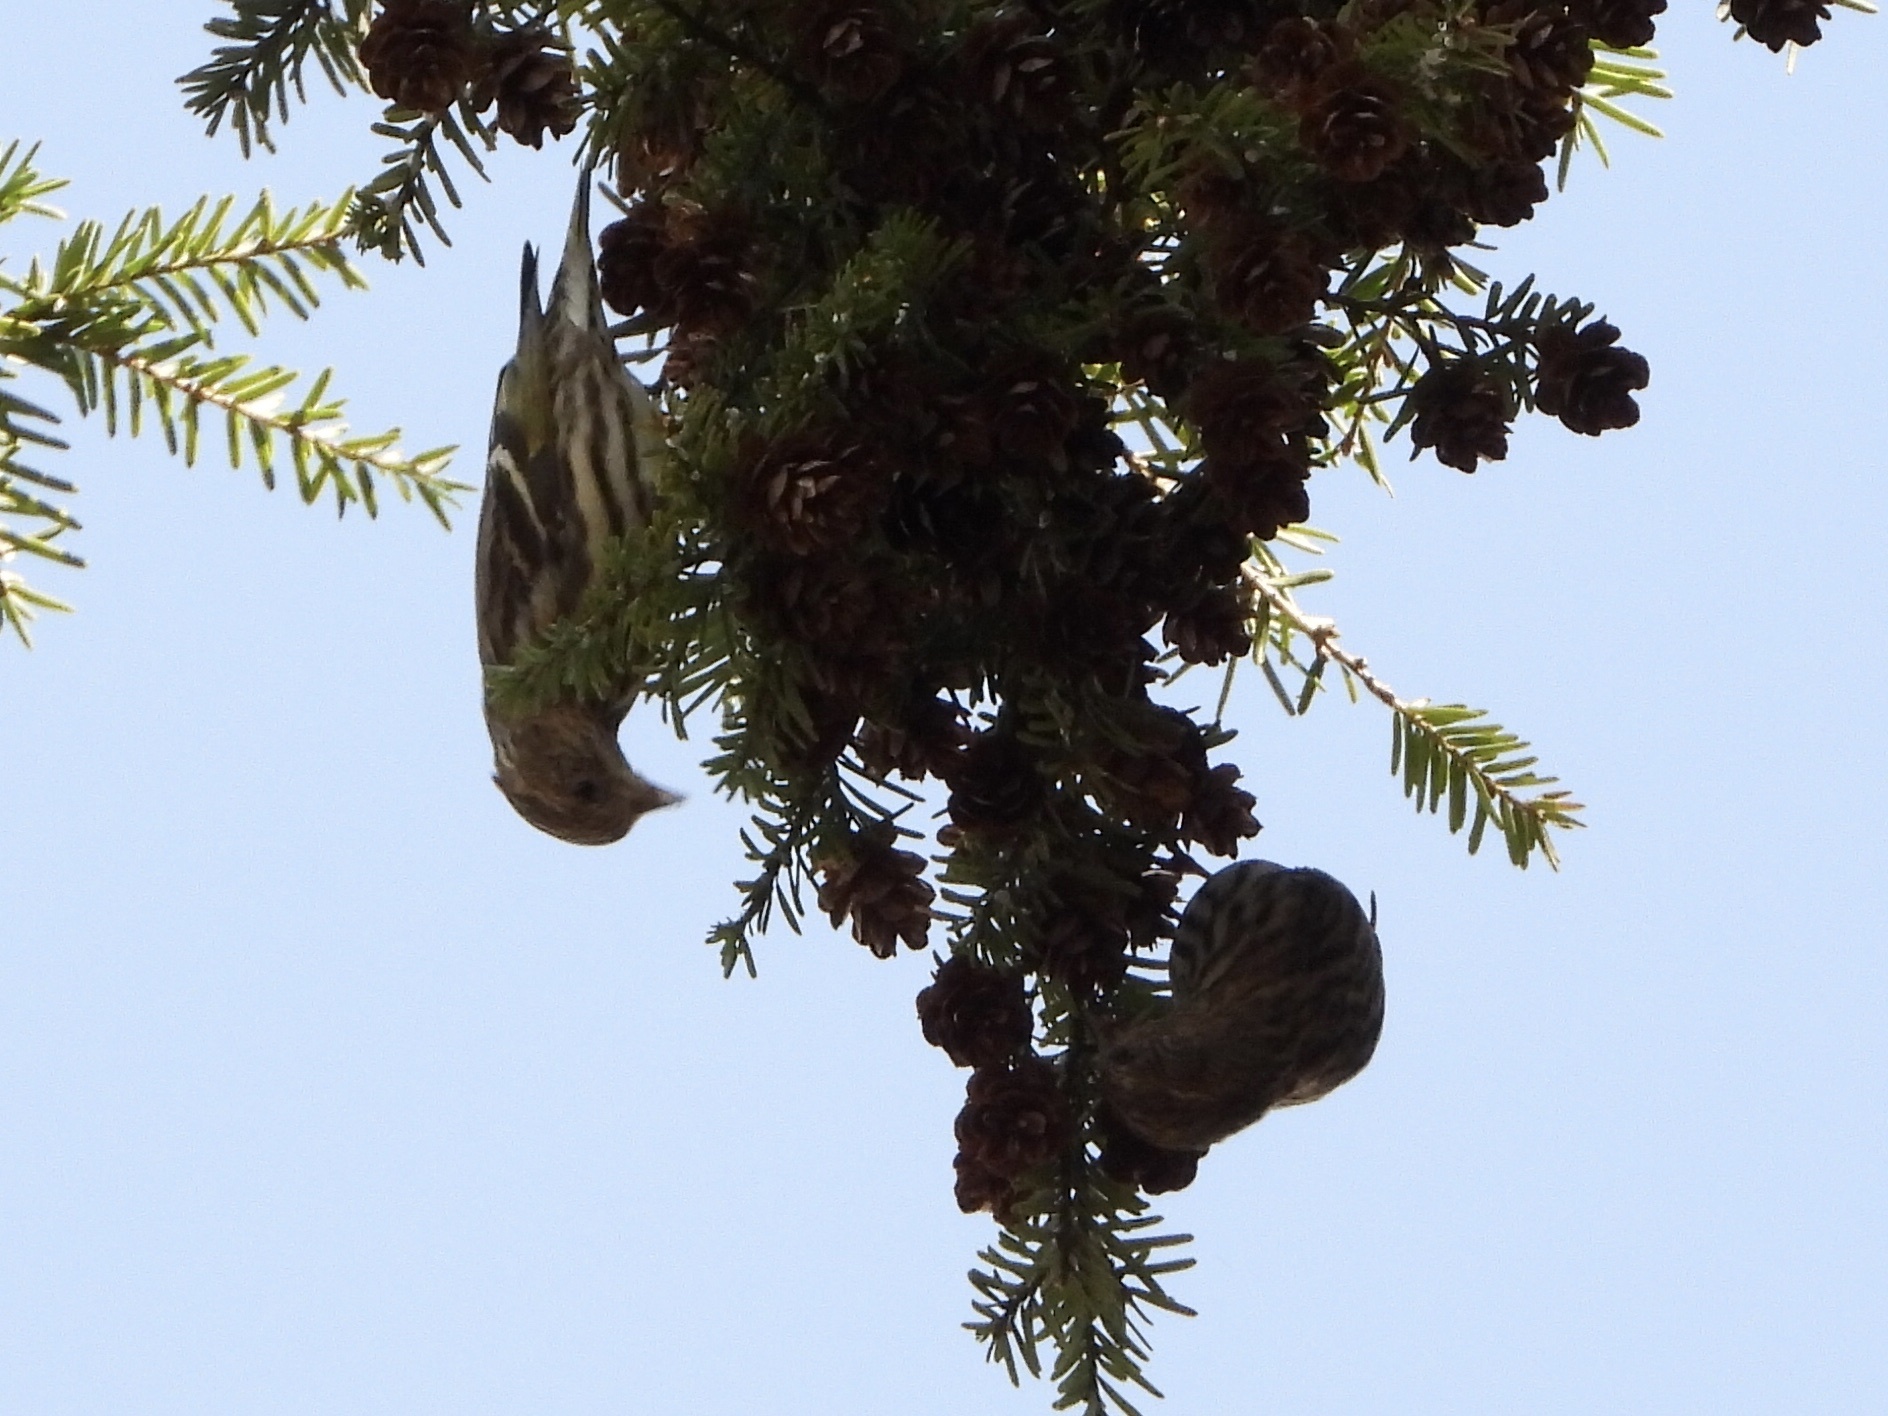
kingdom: Animalia
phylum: Chordata
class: Aves
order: Passeriformes
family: Fringillidae
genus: Spinus
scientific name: Spinus pinus
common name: Pine siskin
